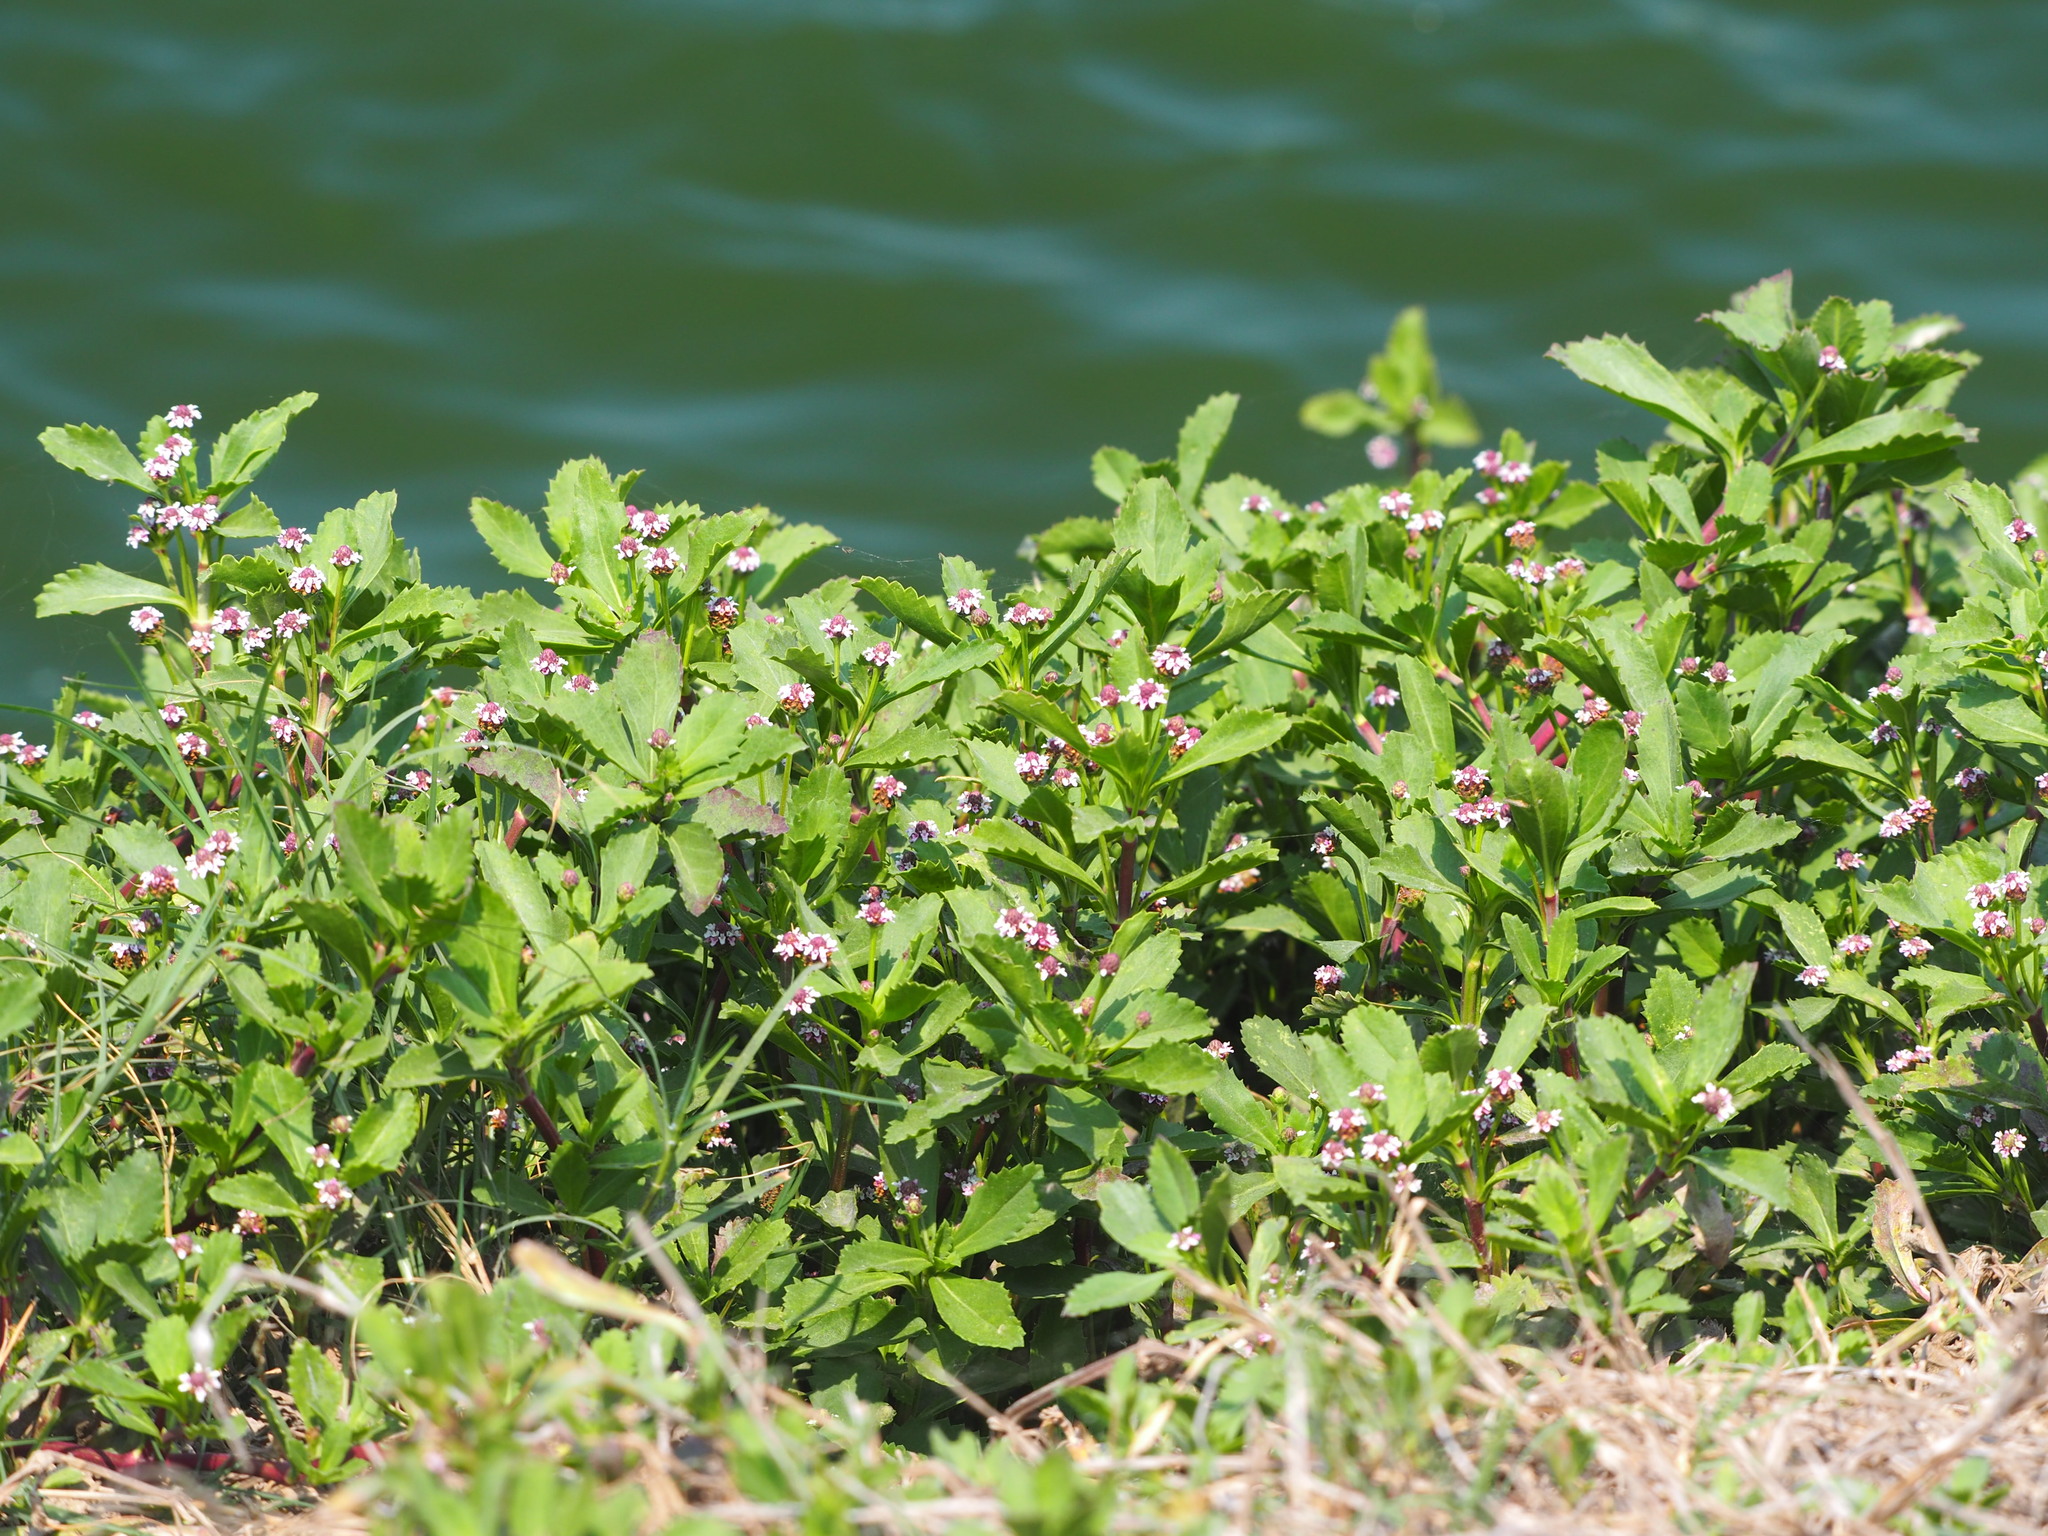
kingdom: Plantae
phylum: Tracheophyta
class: Magnoliopsida
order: Lamiales
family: Verbenaceae
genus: Phyla
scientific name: Phyla nodiflora
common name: Frogfruit
